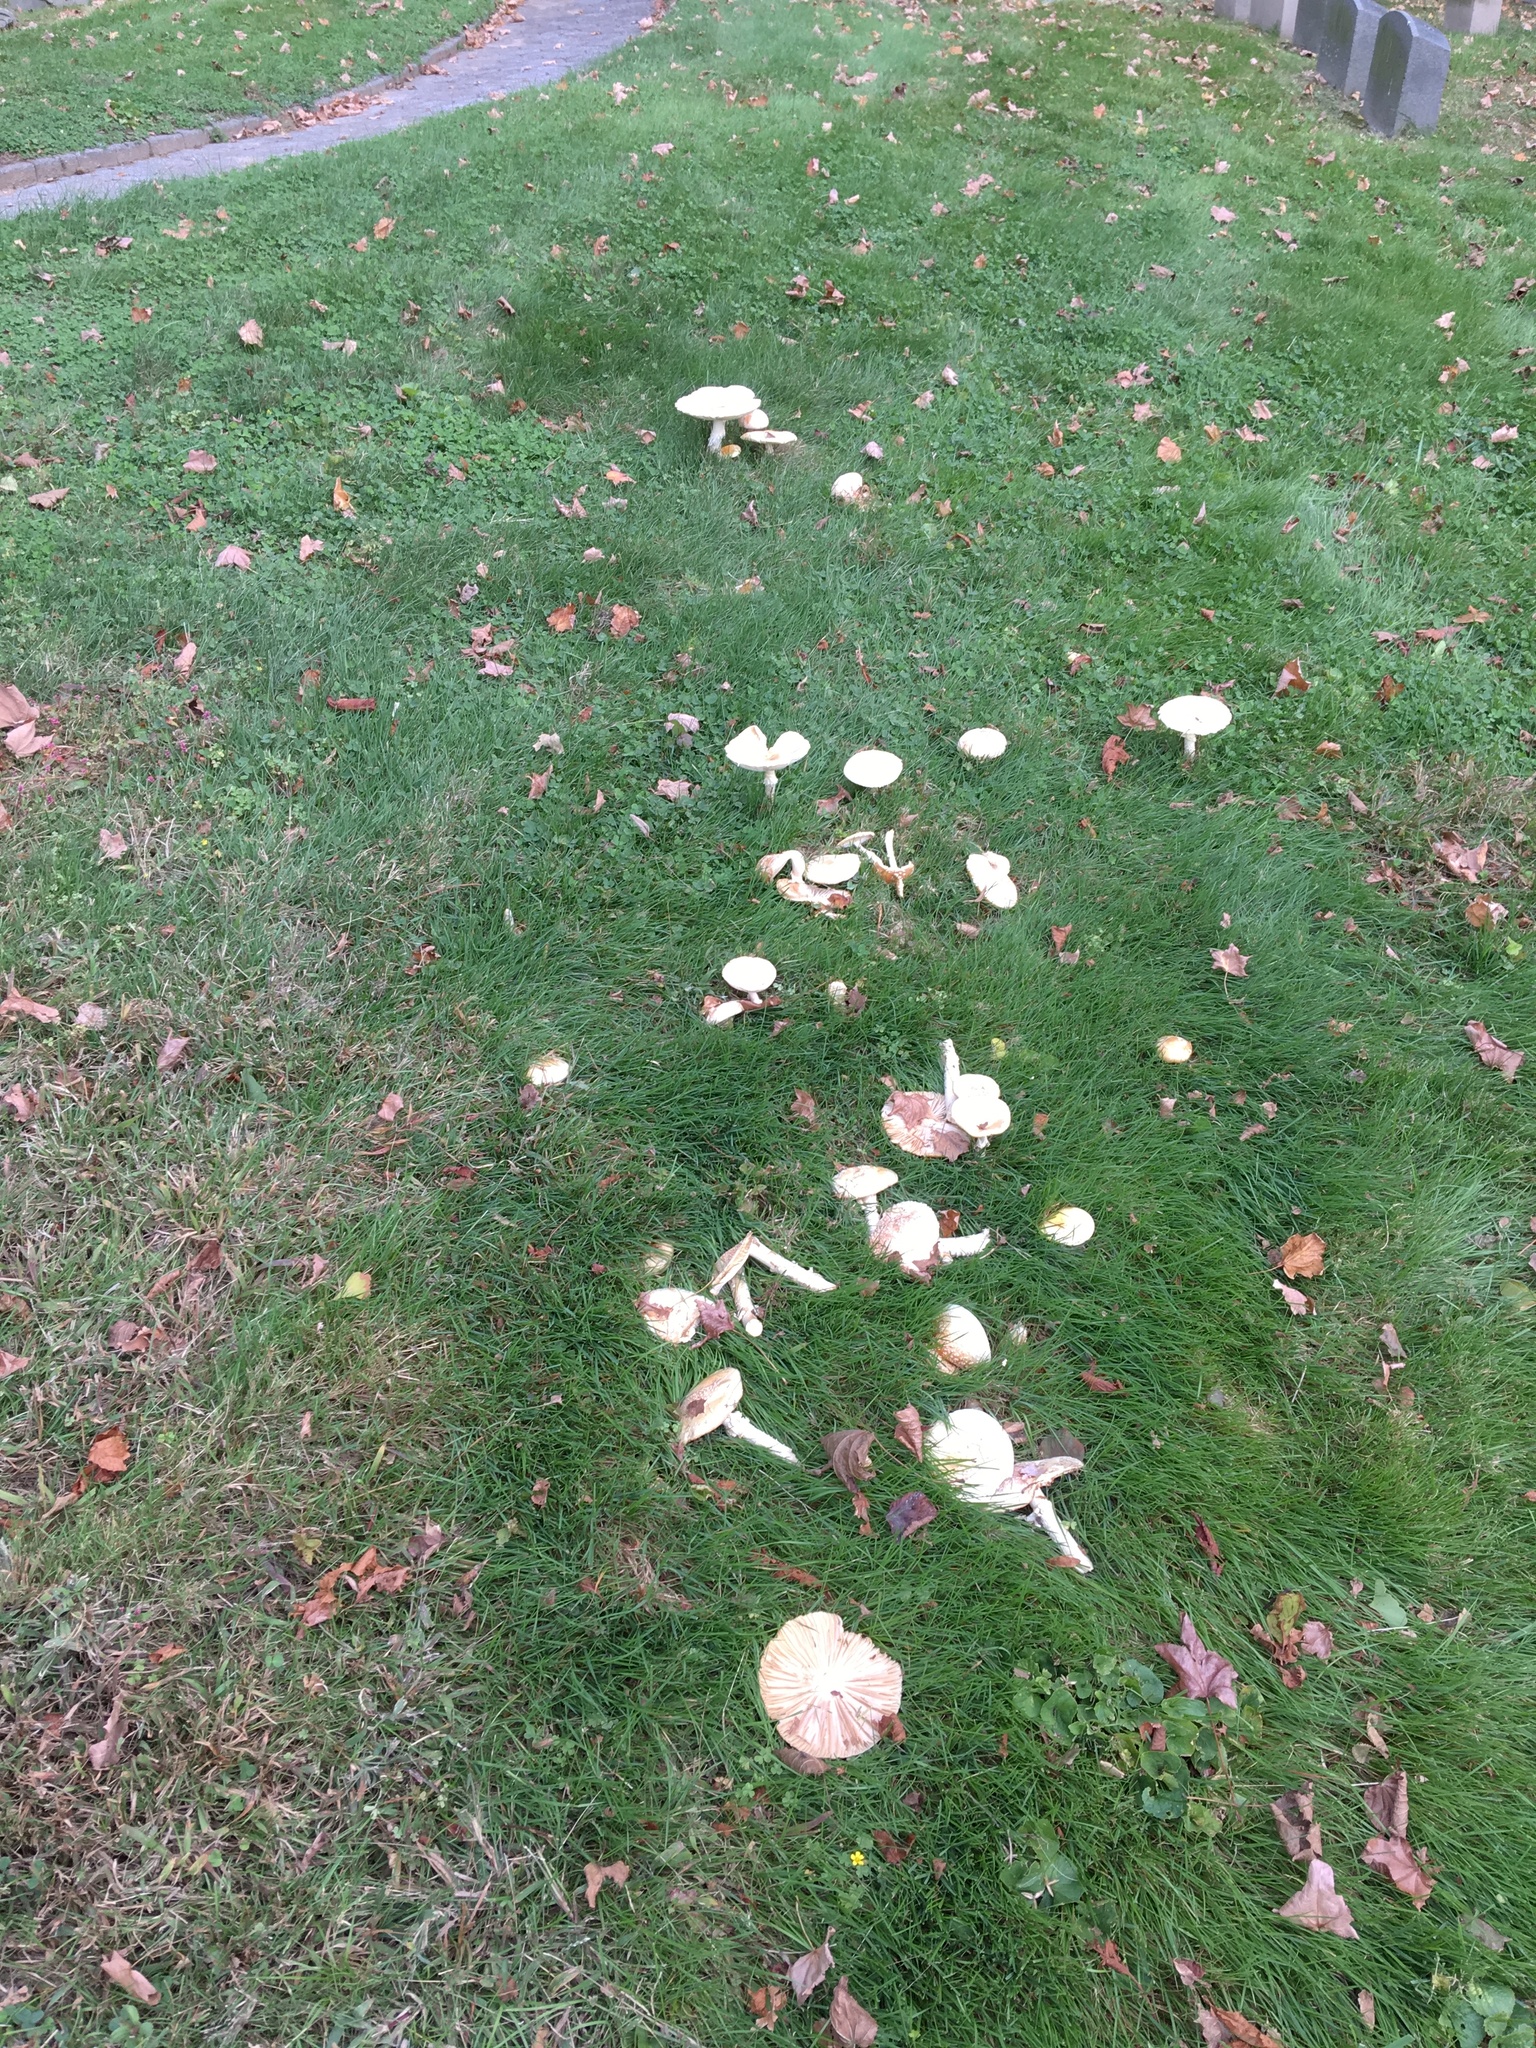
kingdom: Fungi
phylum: Basidiomycota
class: Agaricomycetes
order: Agaricales
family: Amanitaceae
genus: Amanita
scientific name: Amanita muscaria
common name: Fly agaric
